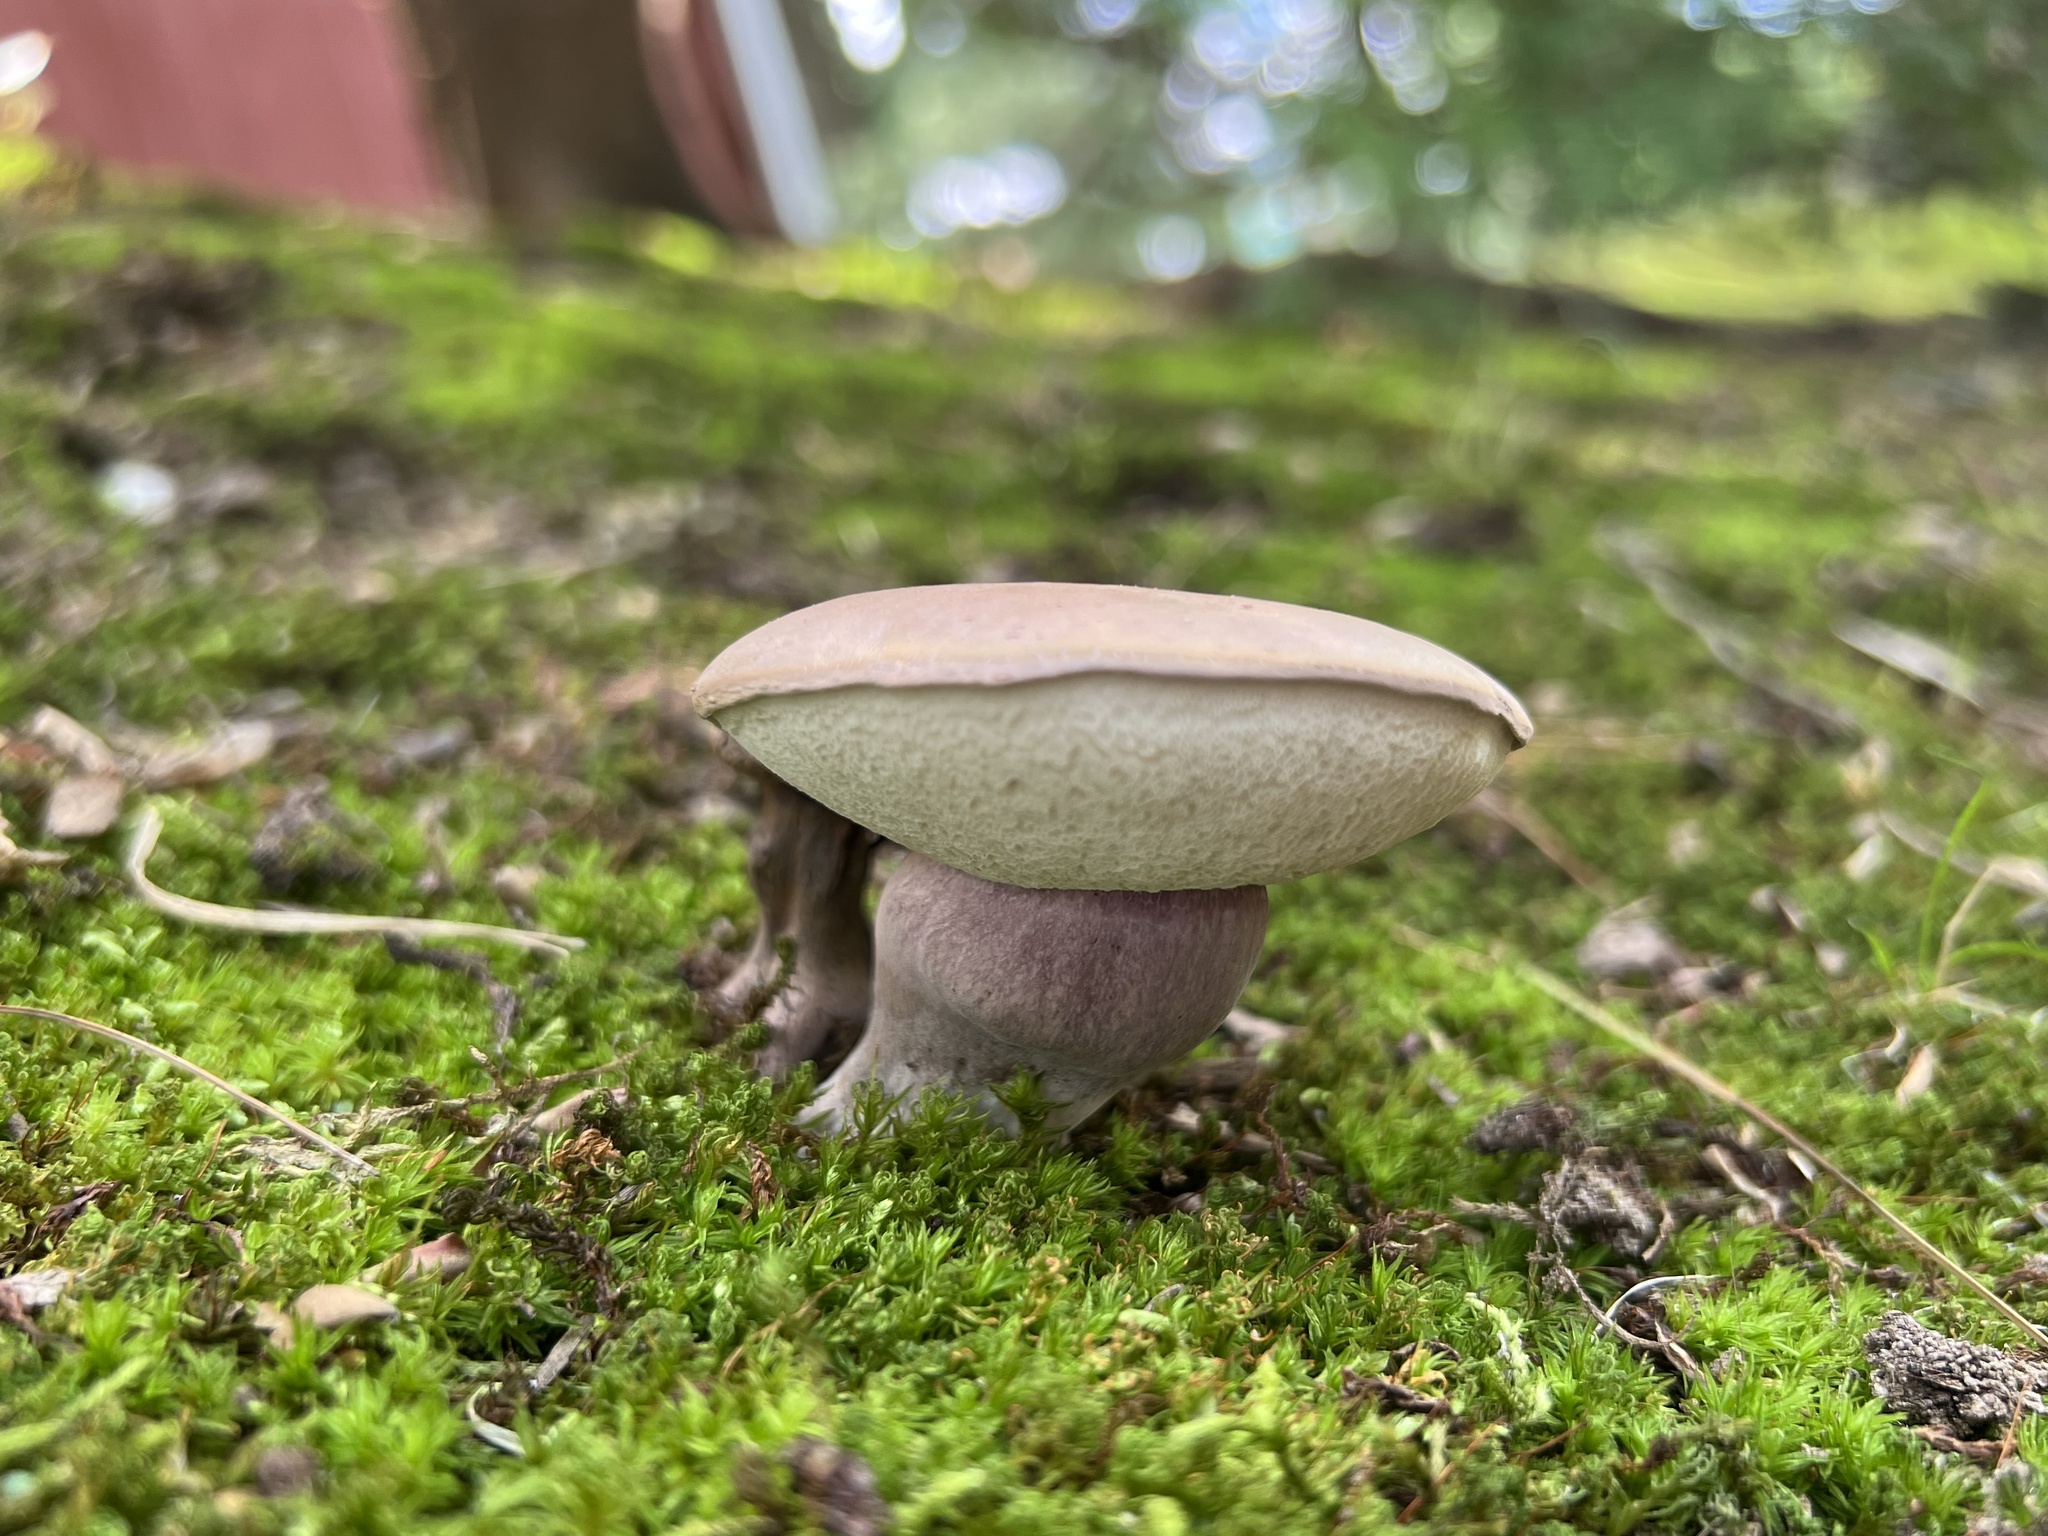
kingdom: Fungi
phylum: Basidiomycota
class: Agaricomycetes
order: Boletales
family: Boletaceae
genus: Tylopilus
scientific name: Tylopilus plumbeoviolaceus
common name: Violet gray bolete
